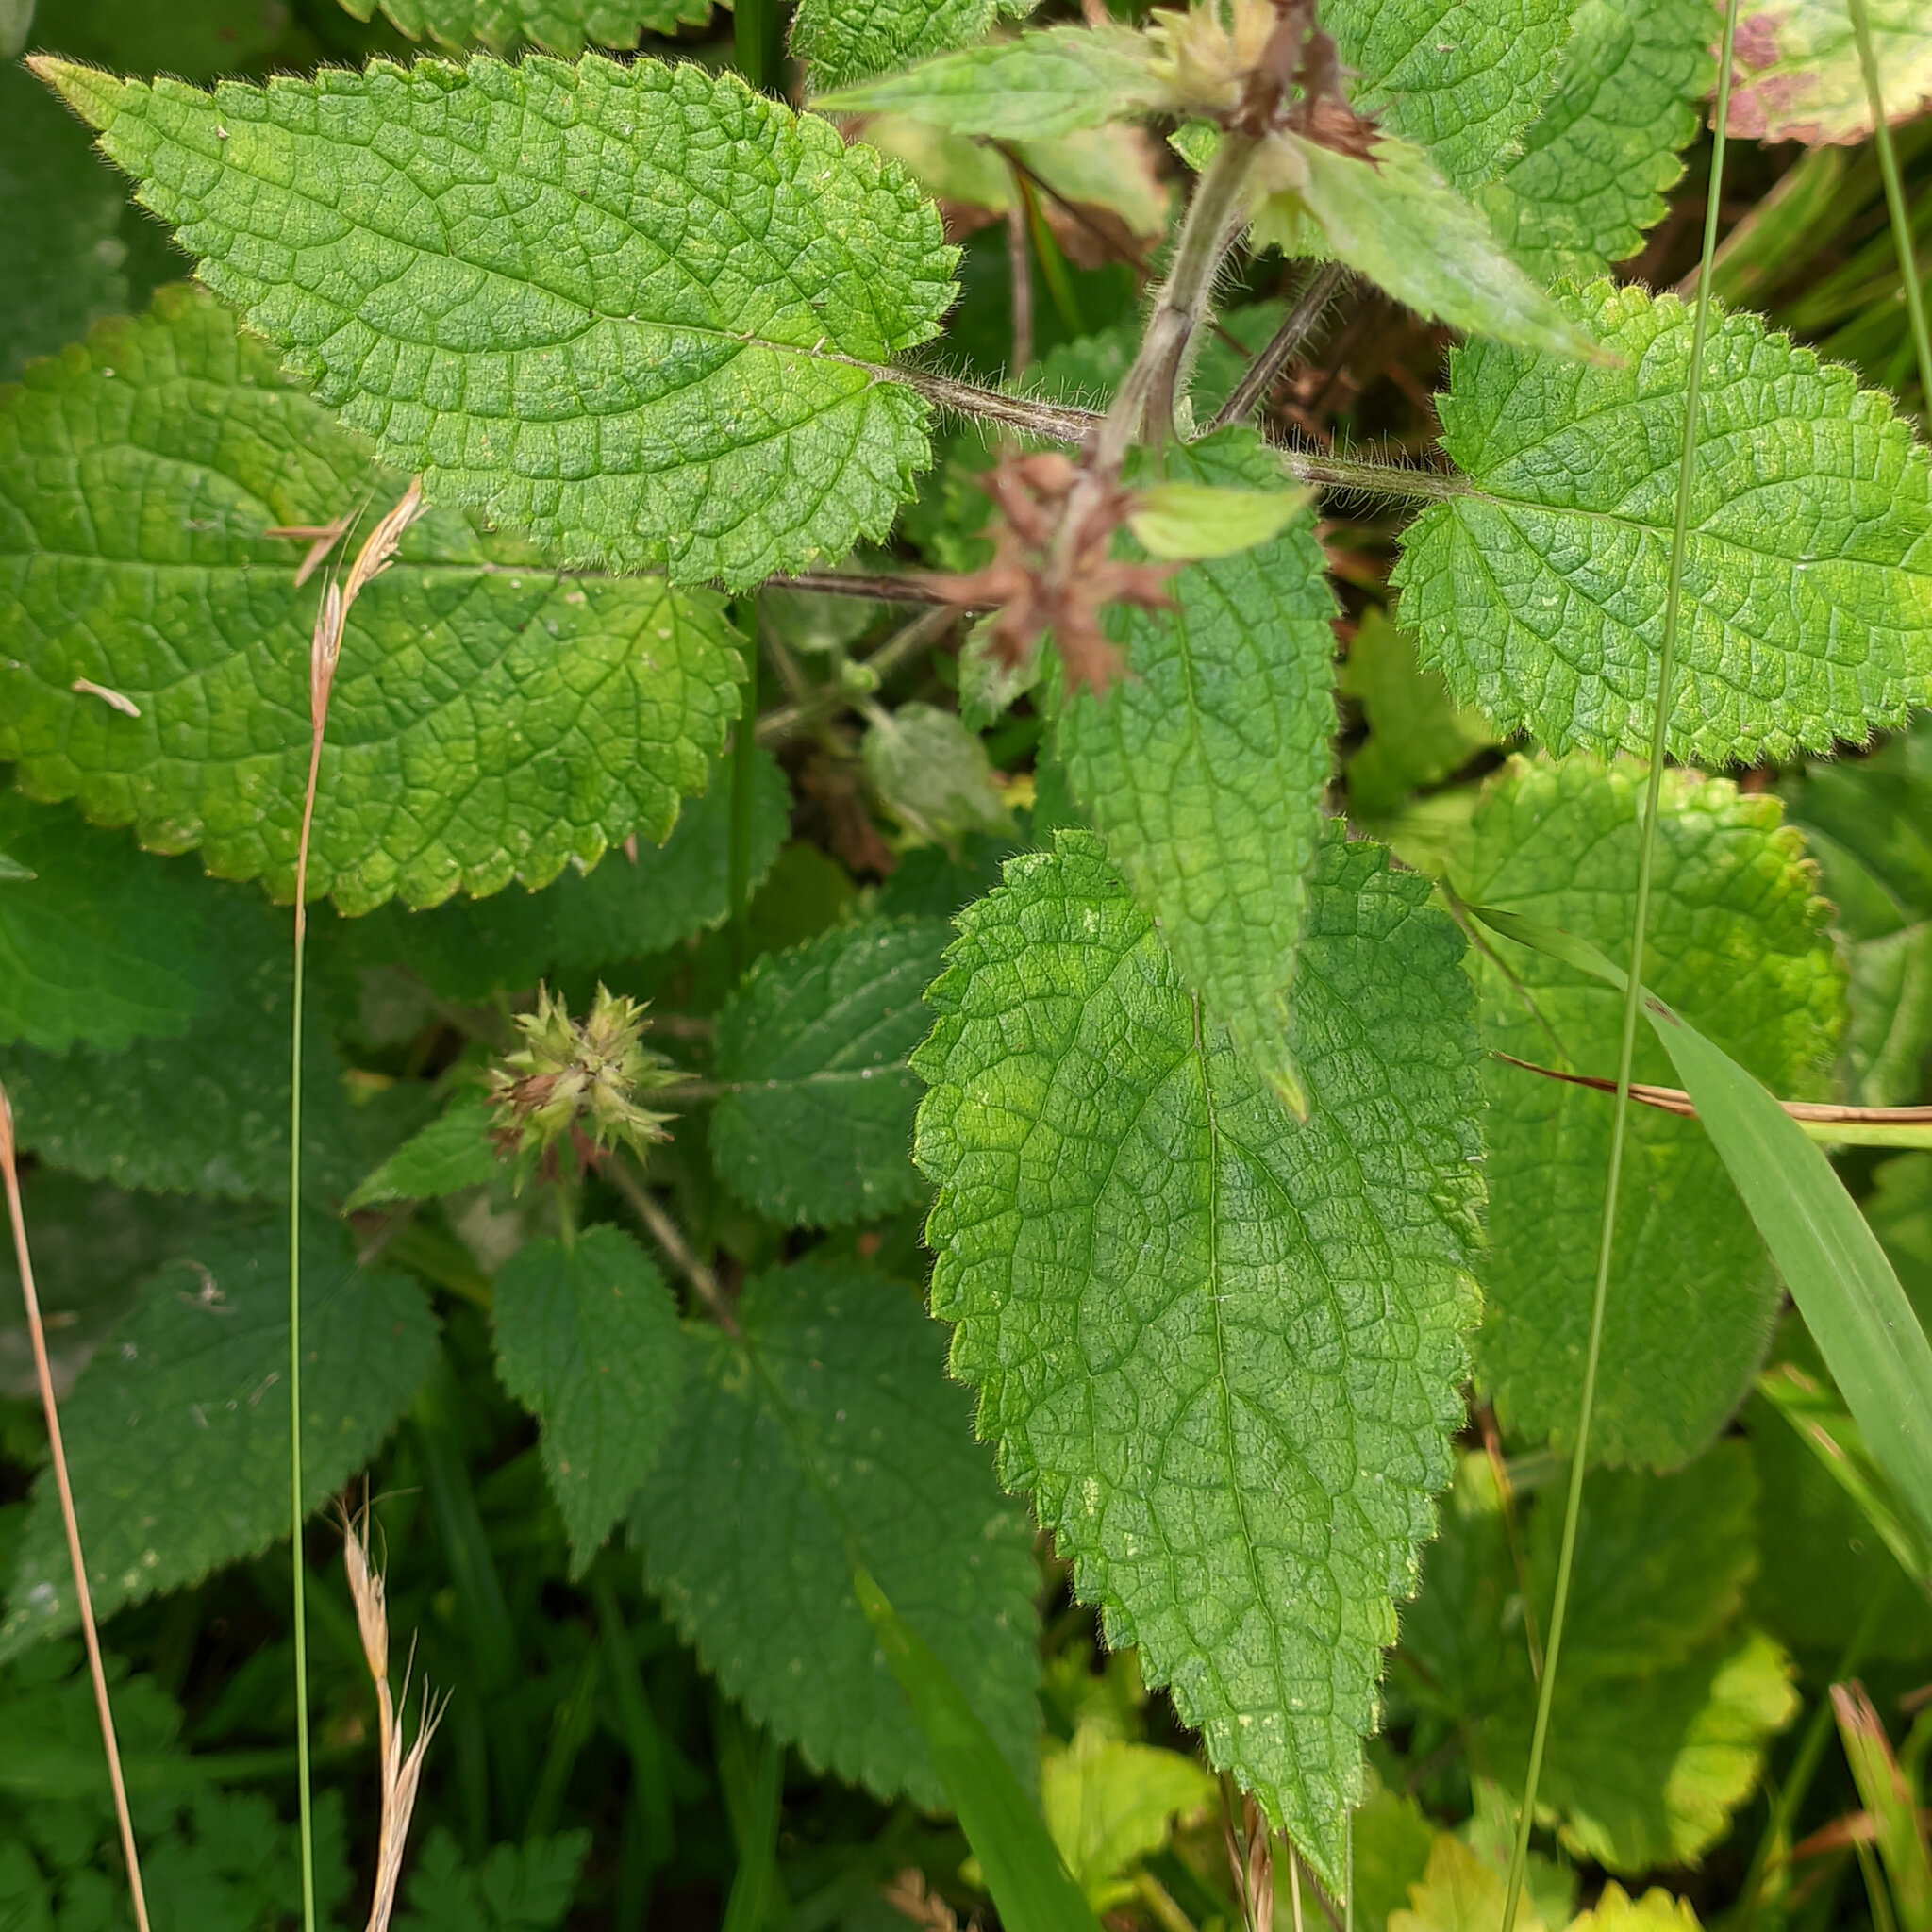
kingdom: Plantae
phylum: Tracheophyta
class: Magnoliopsida
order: Lamiales
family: Lamiaceae
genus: Stachys
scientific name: Stachys sylvatica
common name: Hedge woundwort
